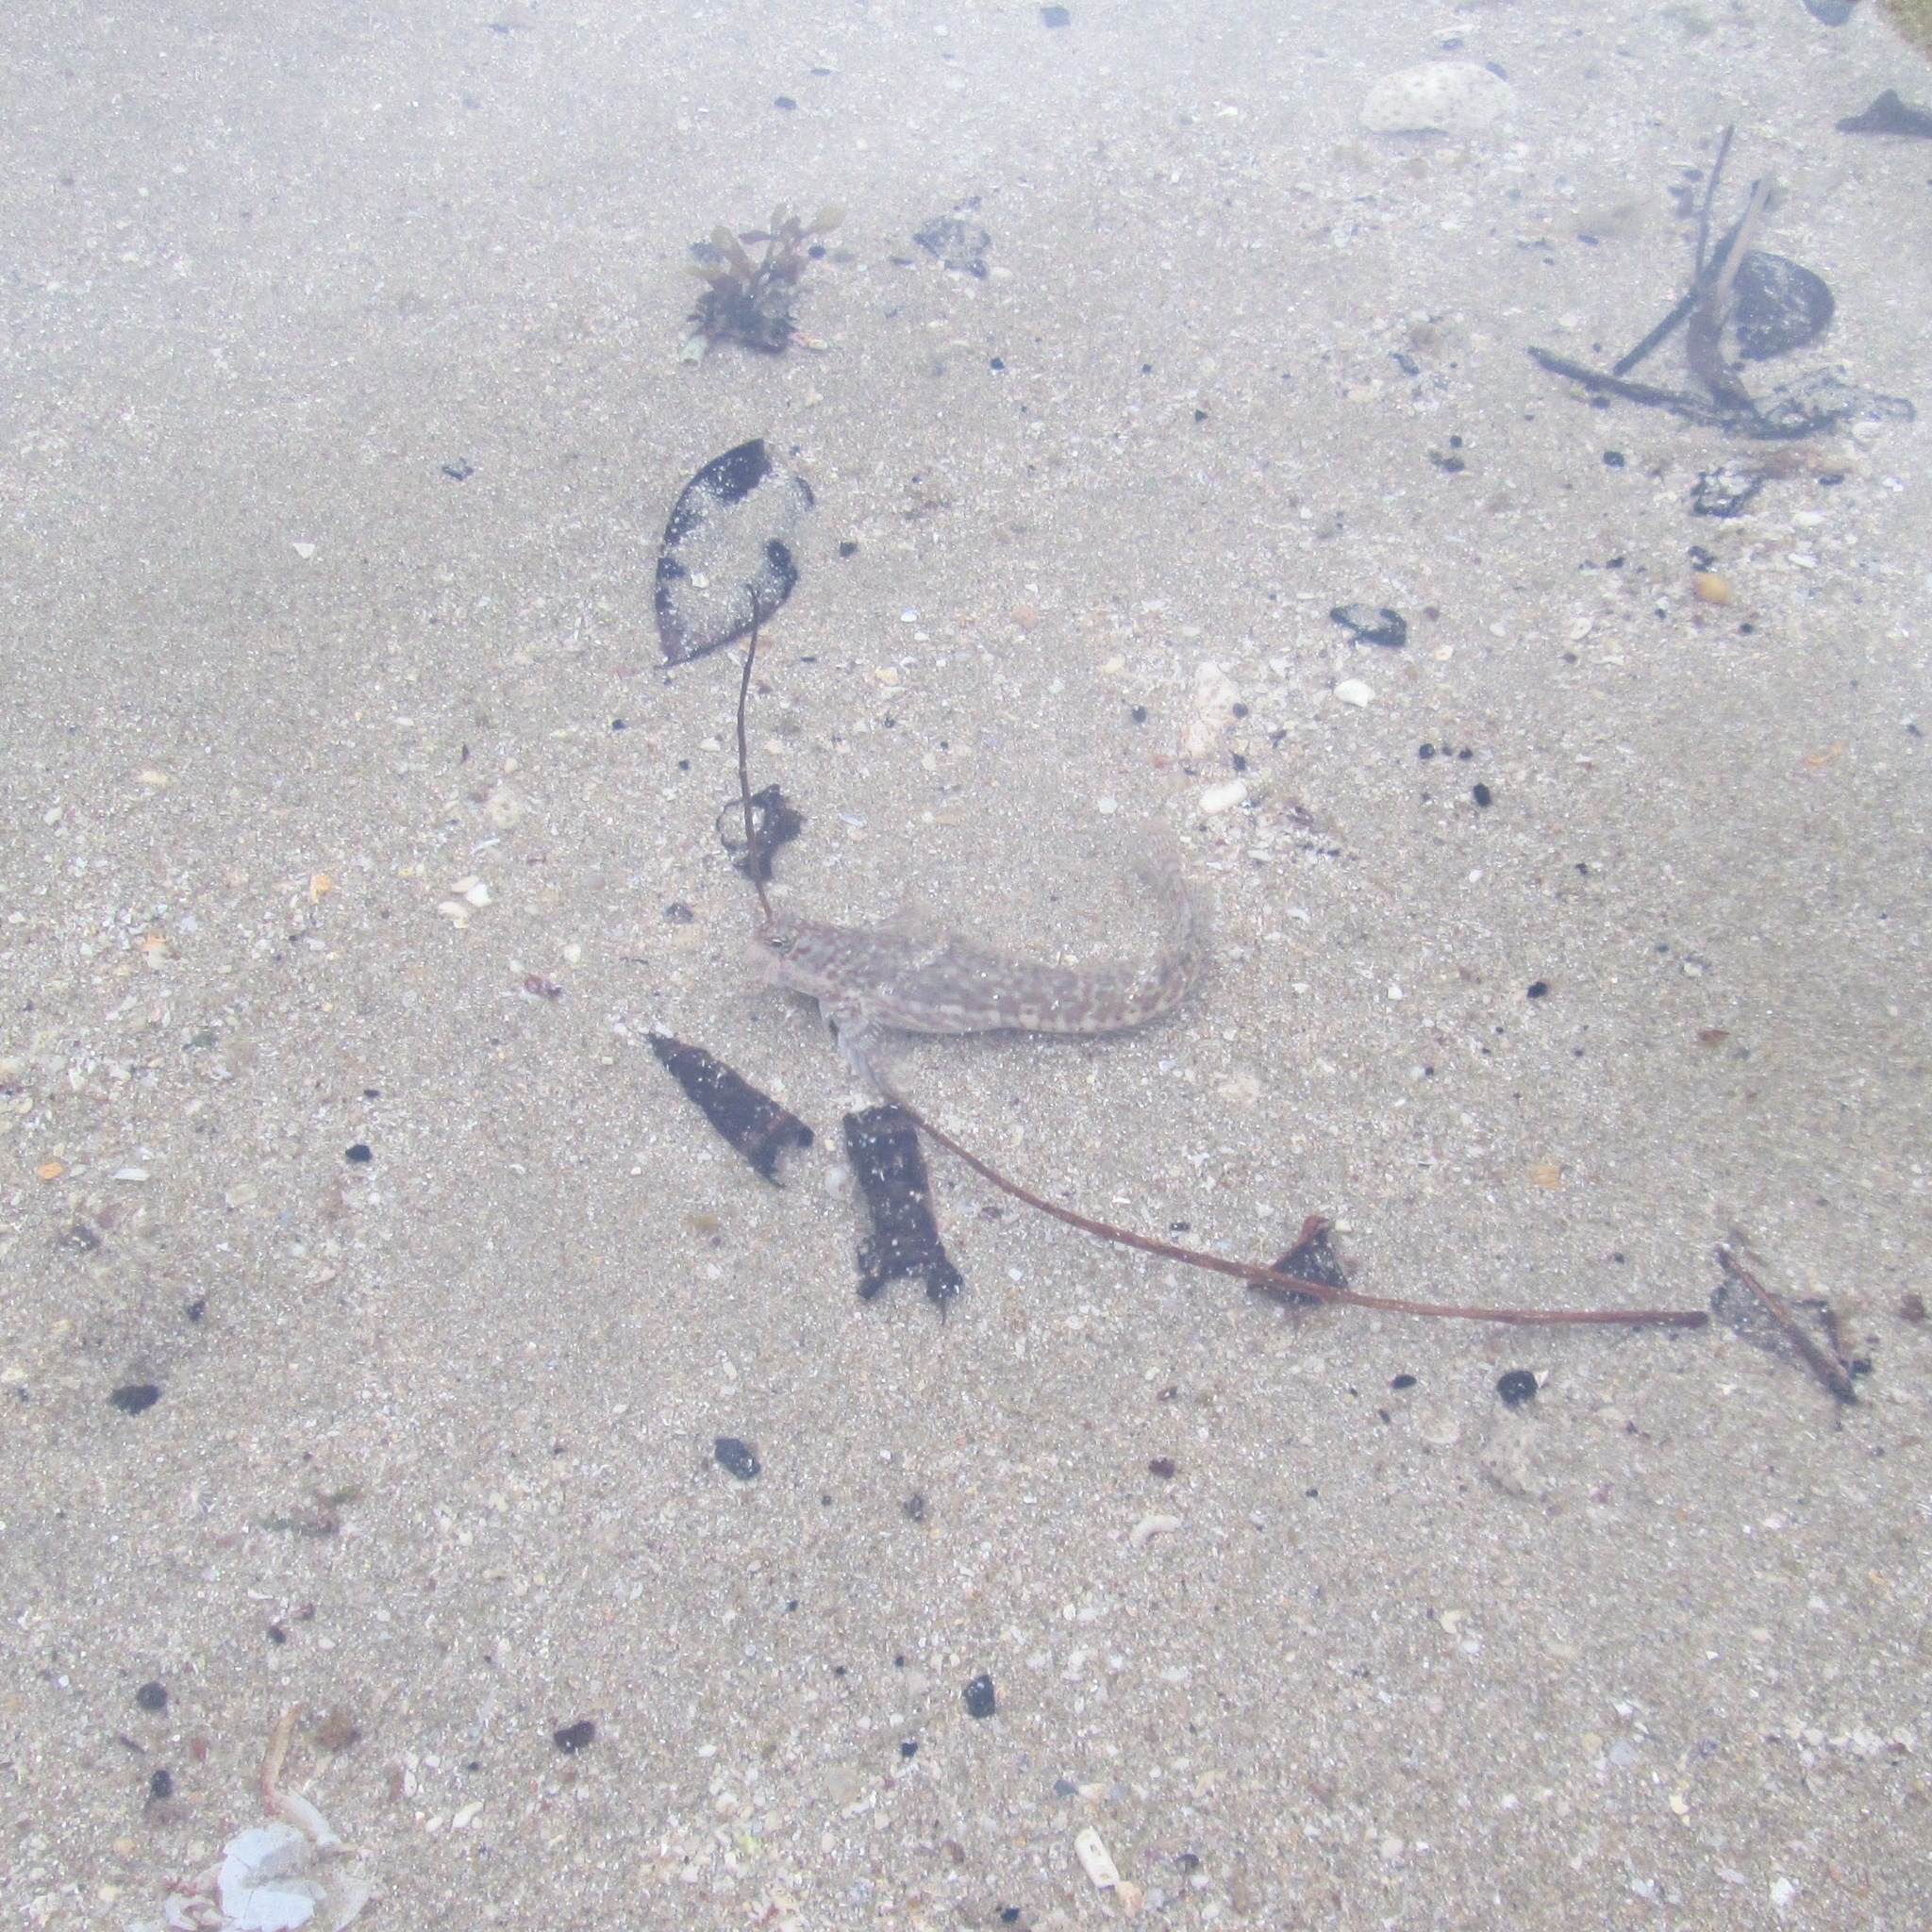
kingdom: Animalia
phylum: Chordata
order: Perciformes
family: Blenniidae
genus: Istiblennius
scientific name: Istiblennius dussumieri
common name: Dussumier's rockskipper
